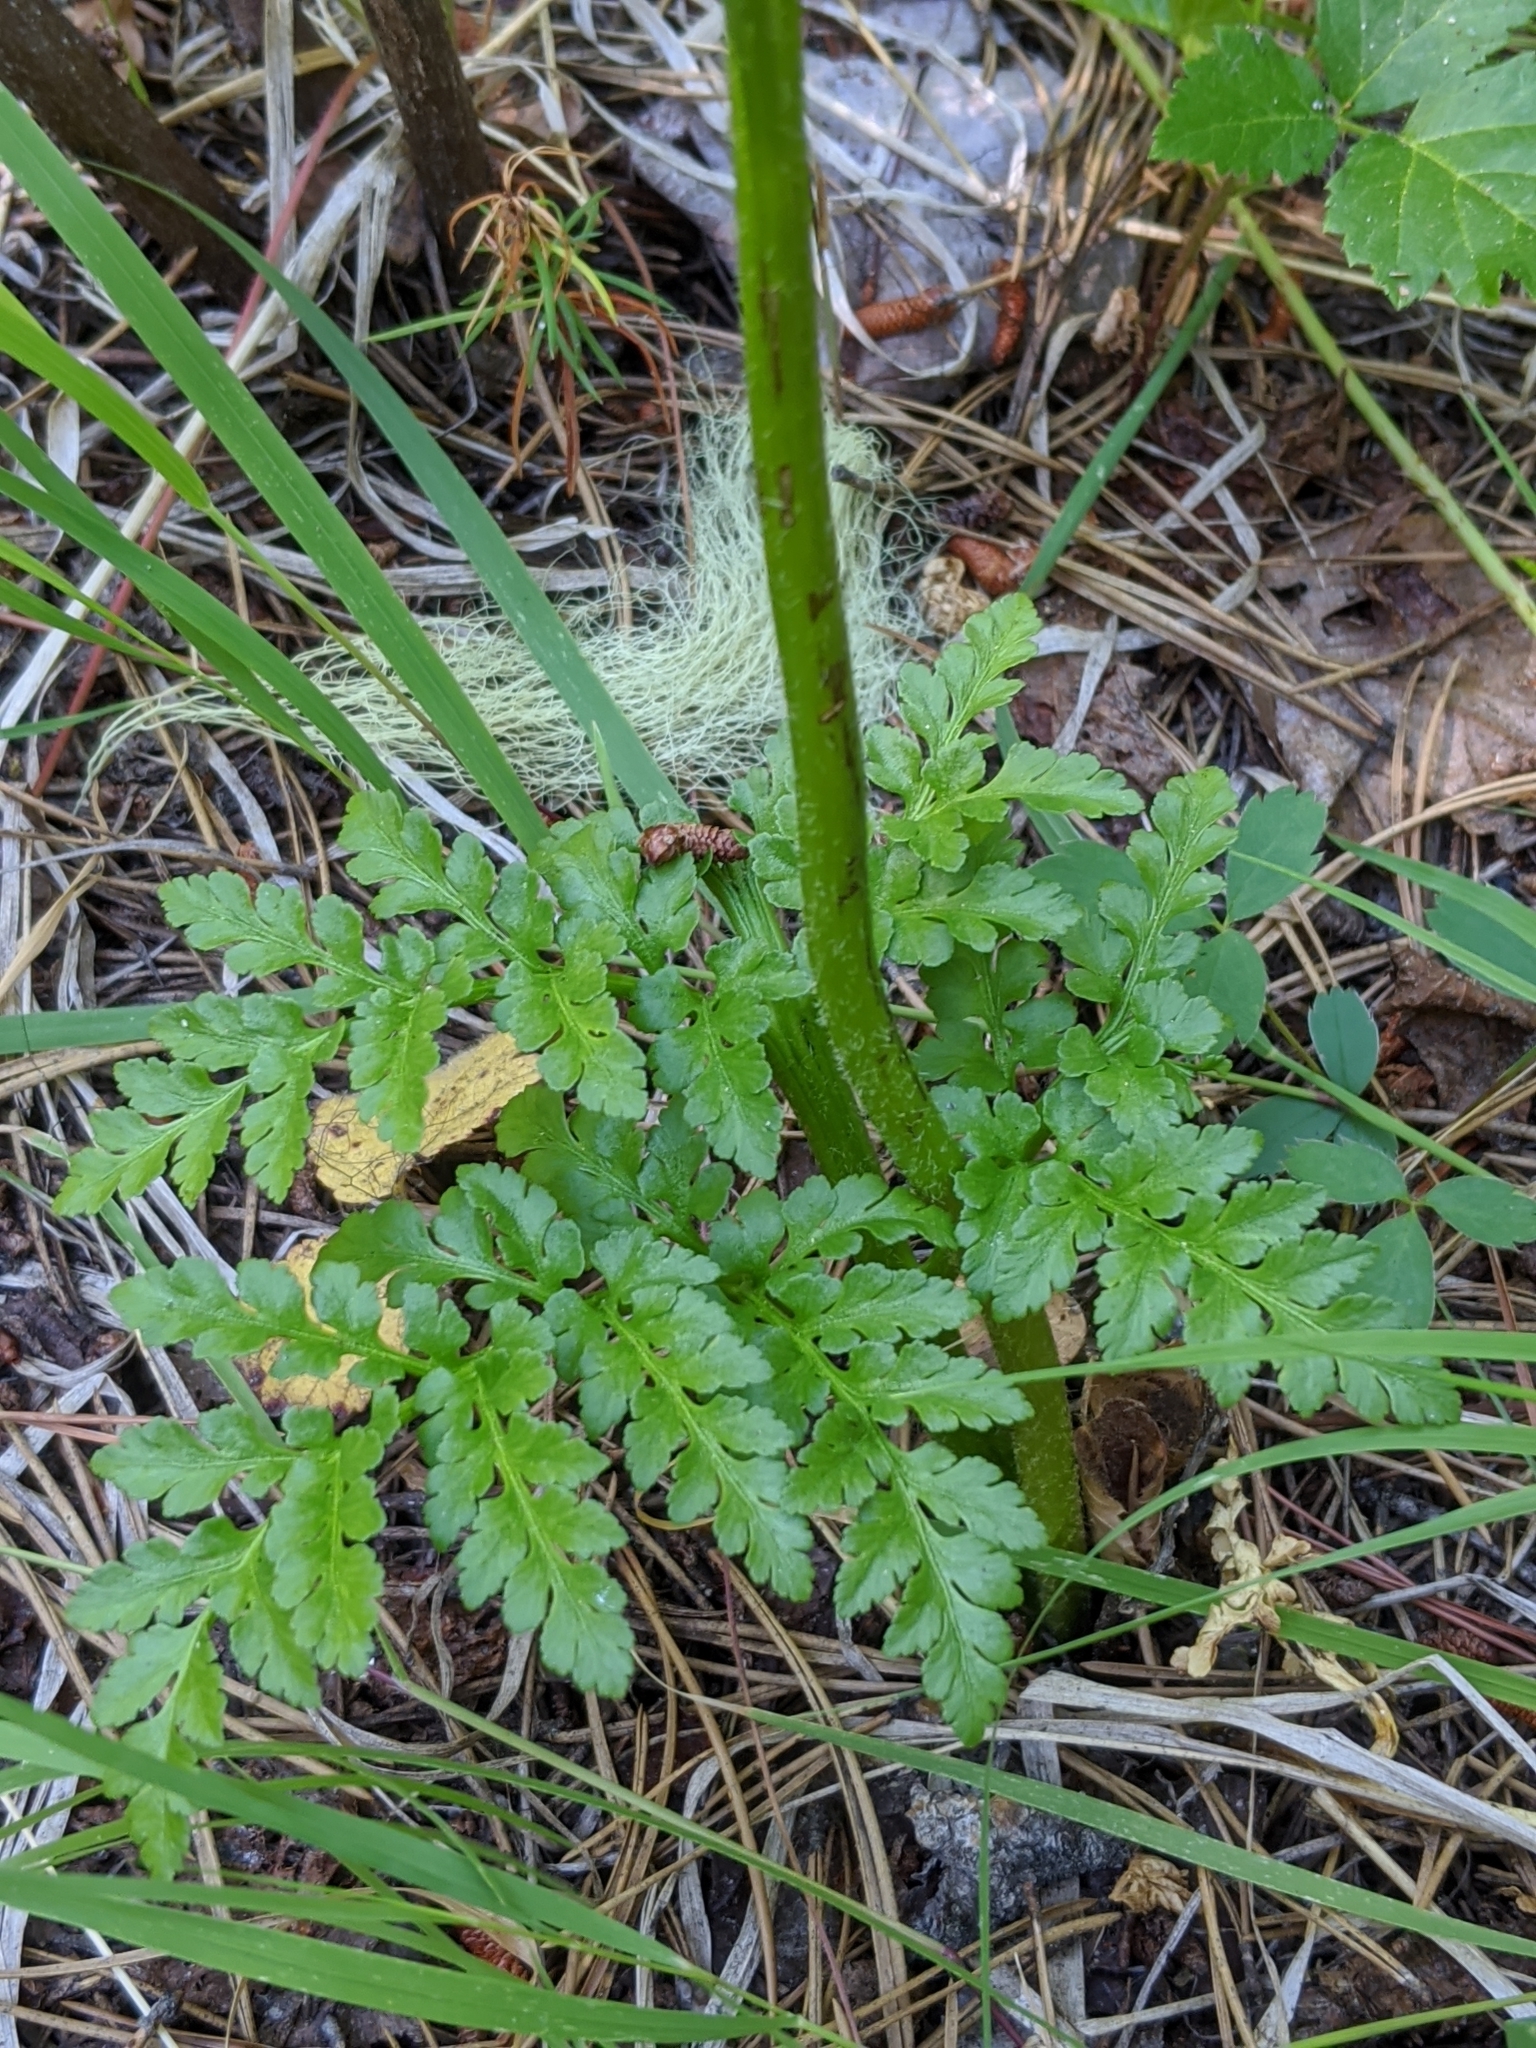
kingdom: Plantae
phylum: Tracheophyta
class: Polypodiopsida
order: Ophioglossales
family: Ophioglossaceae
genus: Sceptridium
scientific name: Sceptridium multifidum
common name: Leathery grape fern
